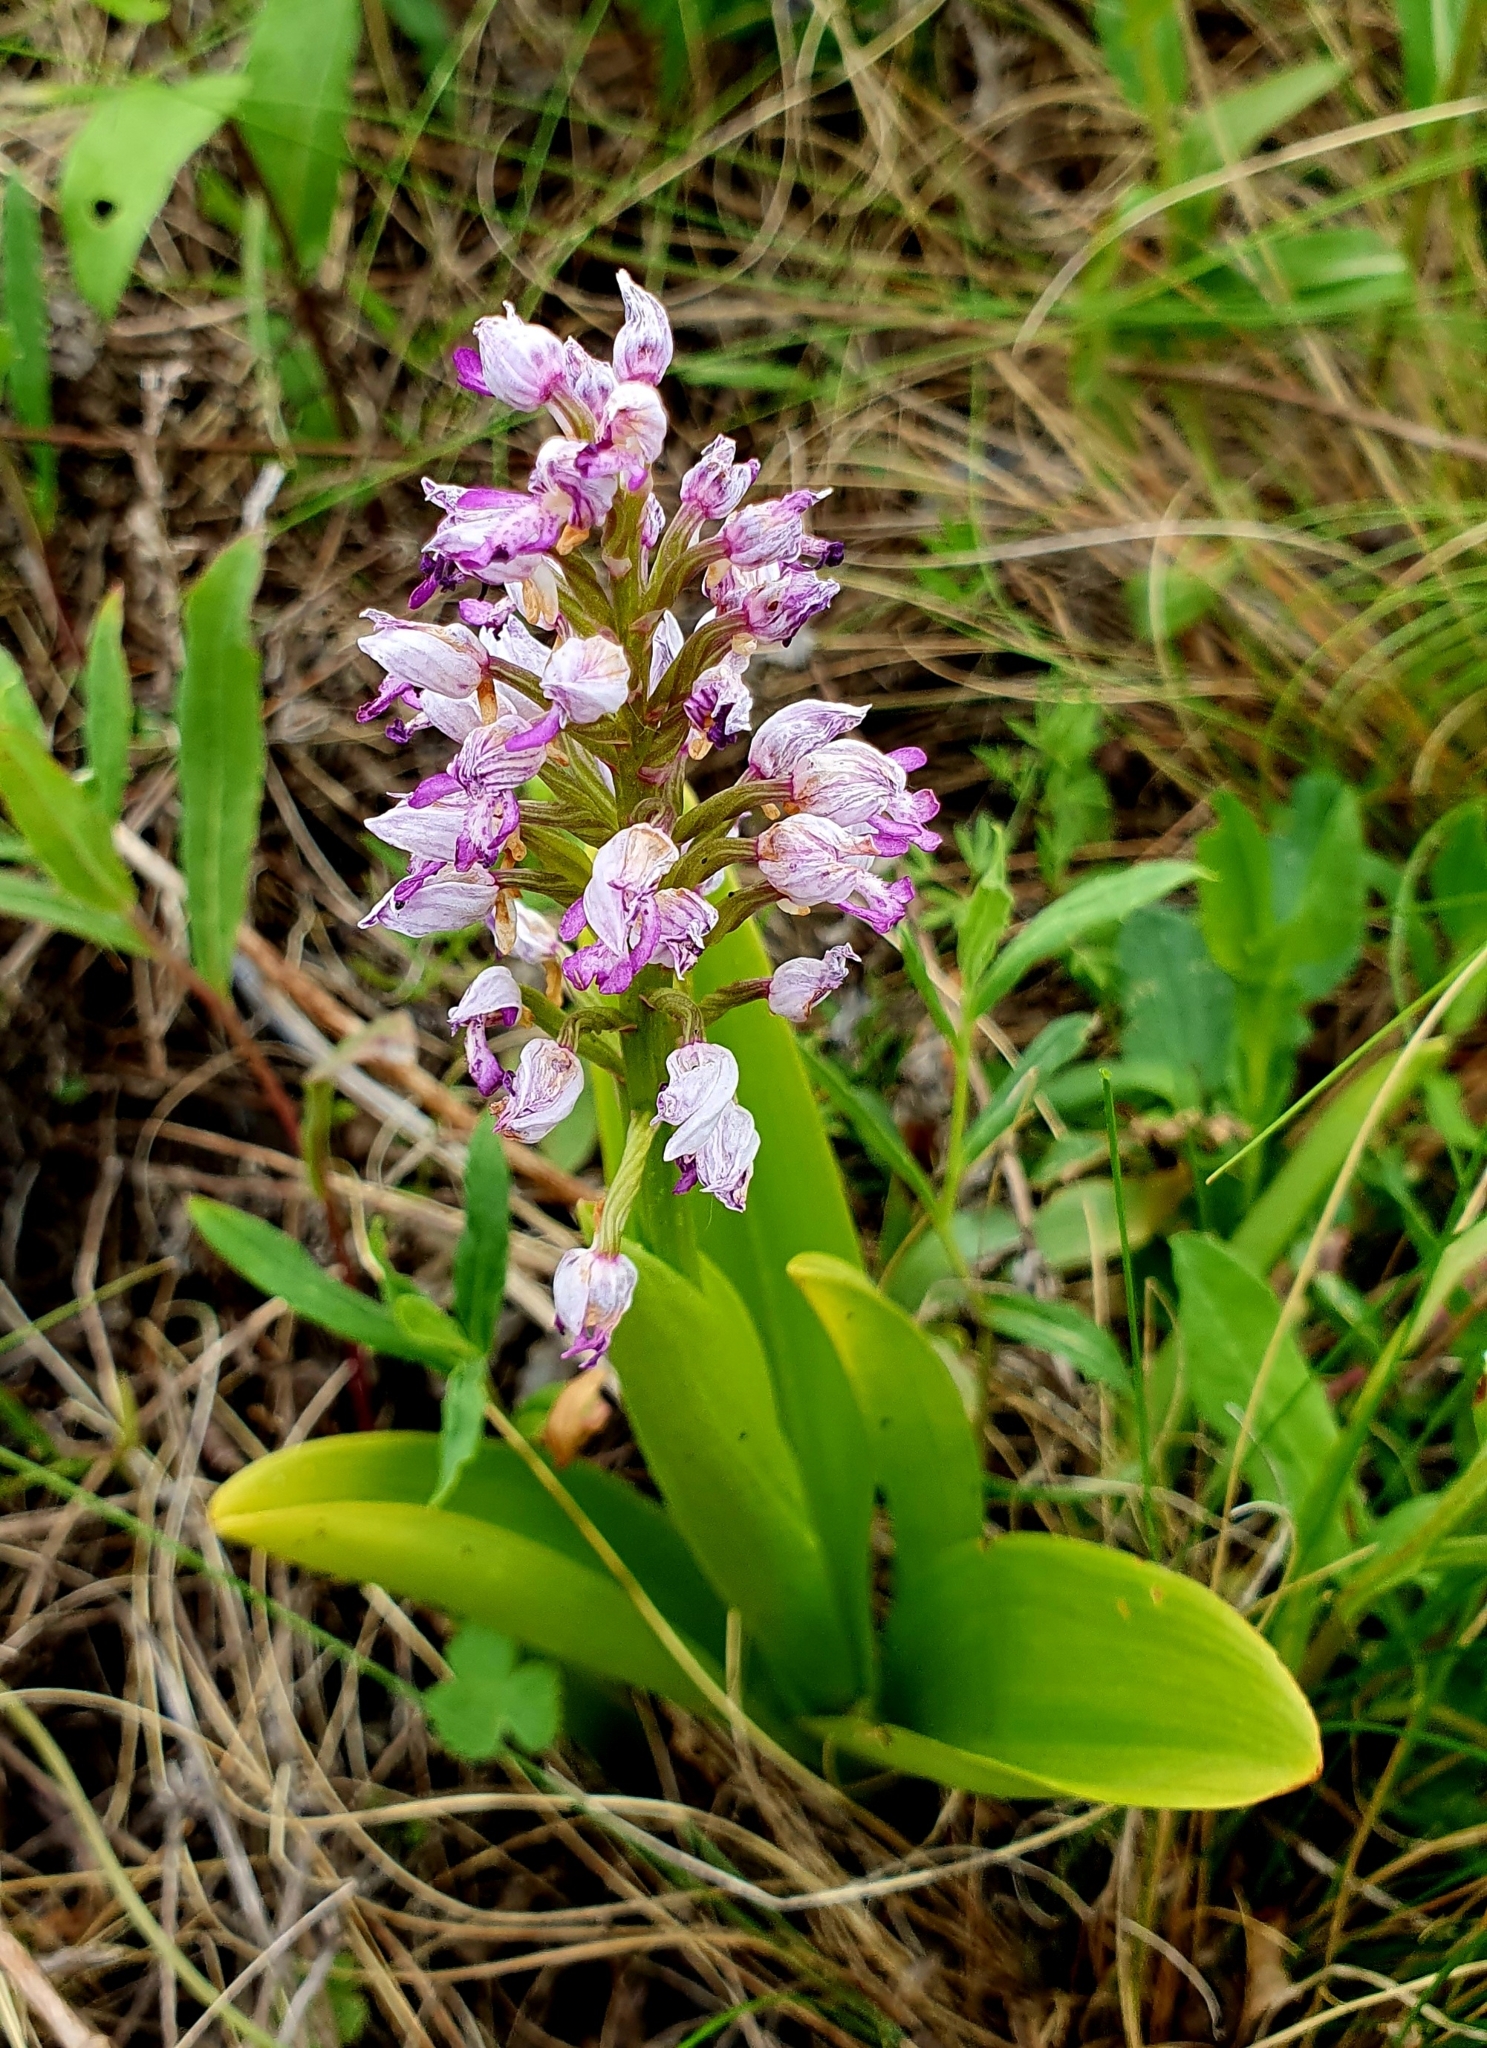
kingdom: Plantae
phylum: Tracheophyta
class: Liliopsida
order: Asparagales
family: Orchidaceae
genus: Orchis
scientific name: Orchis militaris
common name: Military orchid
